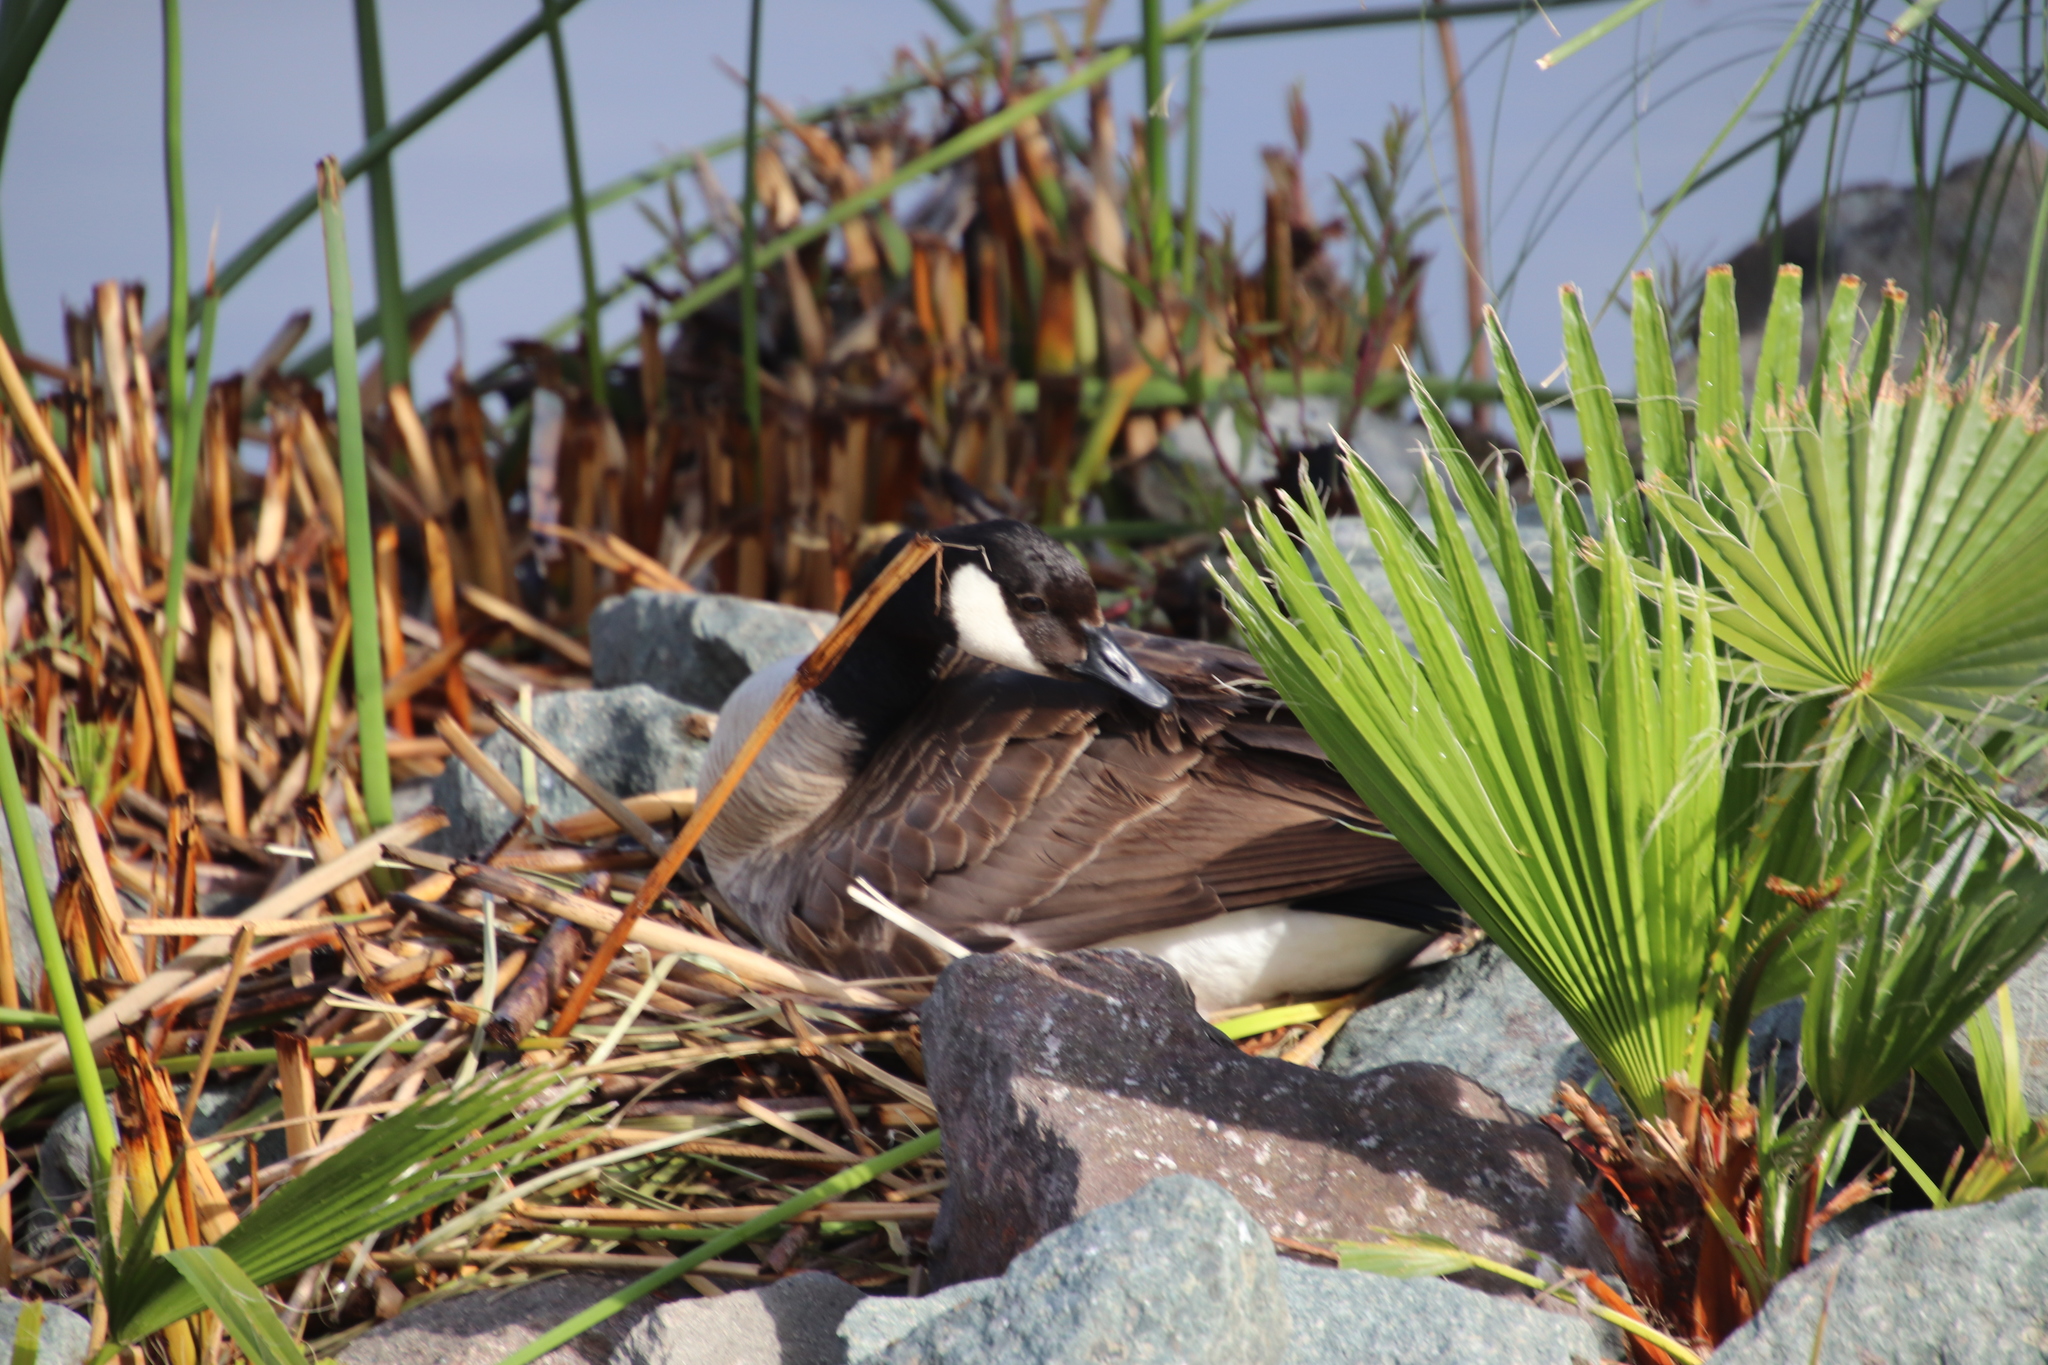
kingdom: Animalia
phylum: Chordata
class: Aves
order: Anseriformes
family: Anatidae
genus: Branta
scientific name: Branta canadensis
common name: Canada goose
